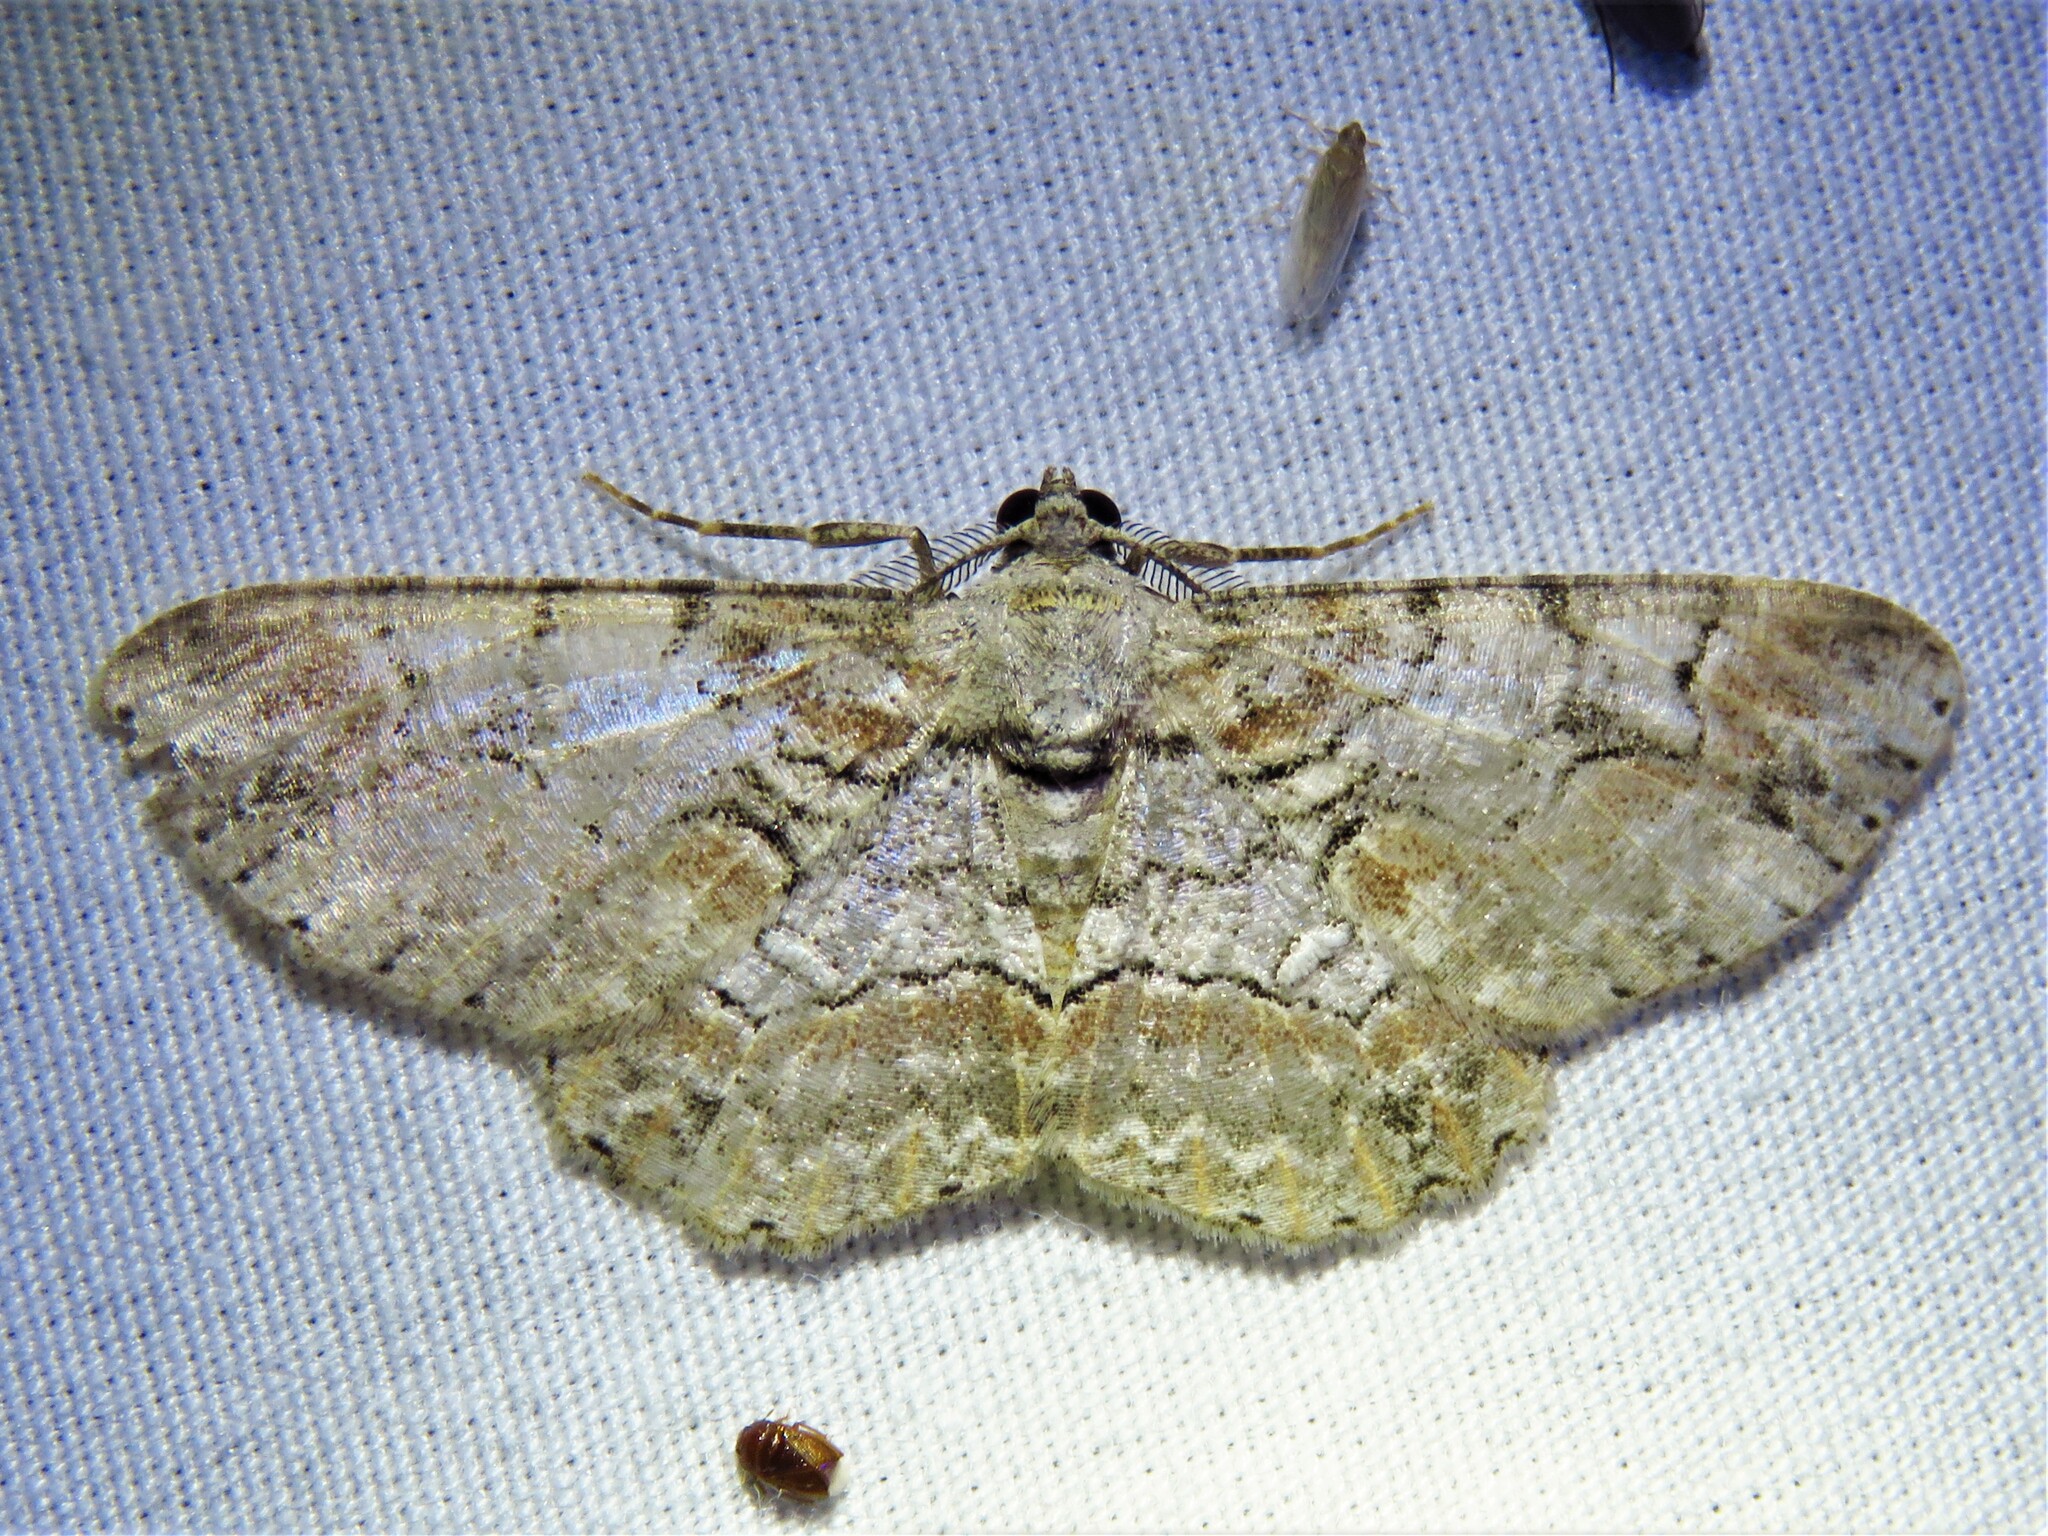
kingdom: Animalia
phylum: Arthropoda
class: Insecta
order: Lepidoptera
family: Geometridae
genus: Iridopsis
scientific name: Iridopsis defectaria
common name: Brown-shaded gray
